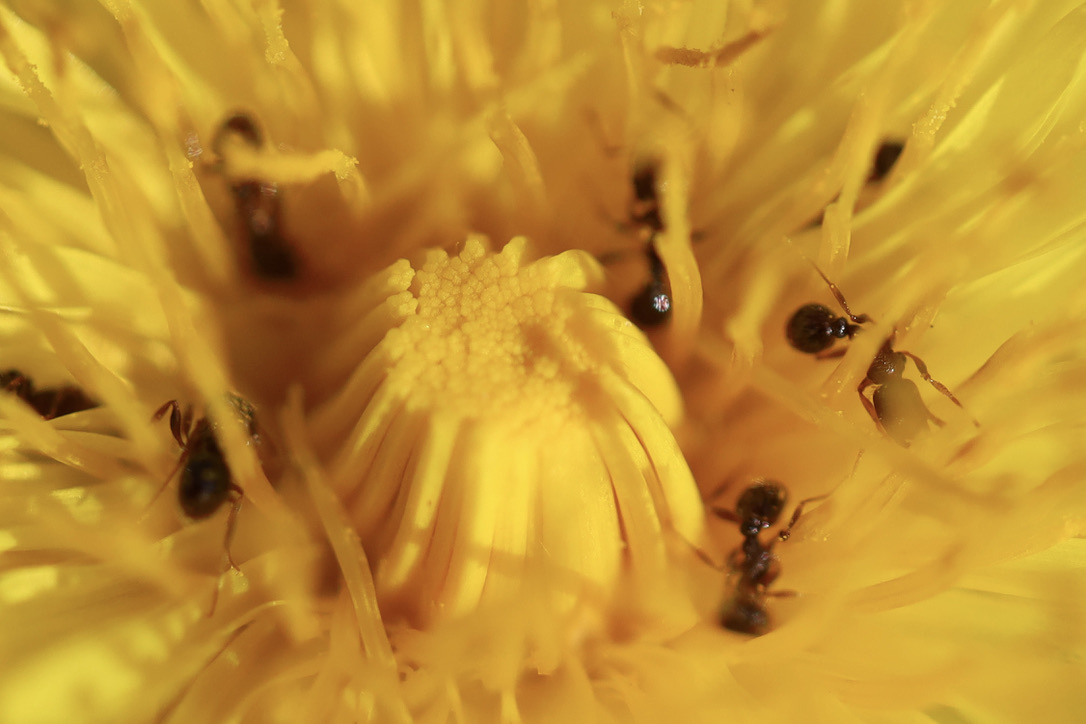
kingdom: Animalia
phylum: Arthropoda
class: Insecta
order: Hymenoptera
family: Formicidae
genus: Tetramorium
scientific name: Tetramorium immigrans
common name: Pavement ant
